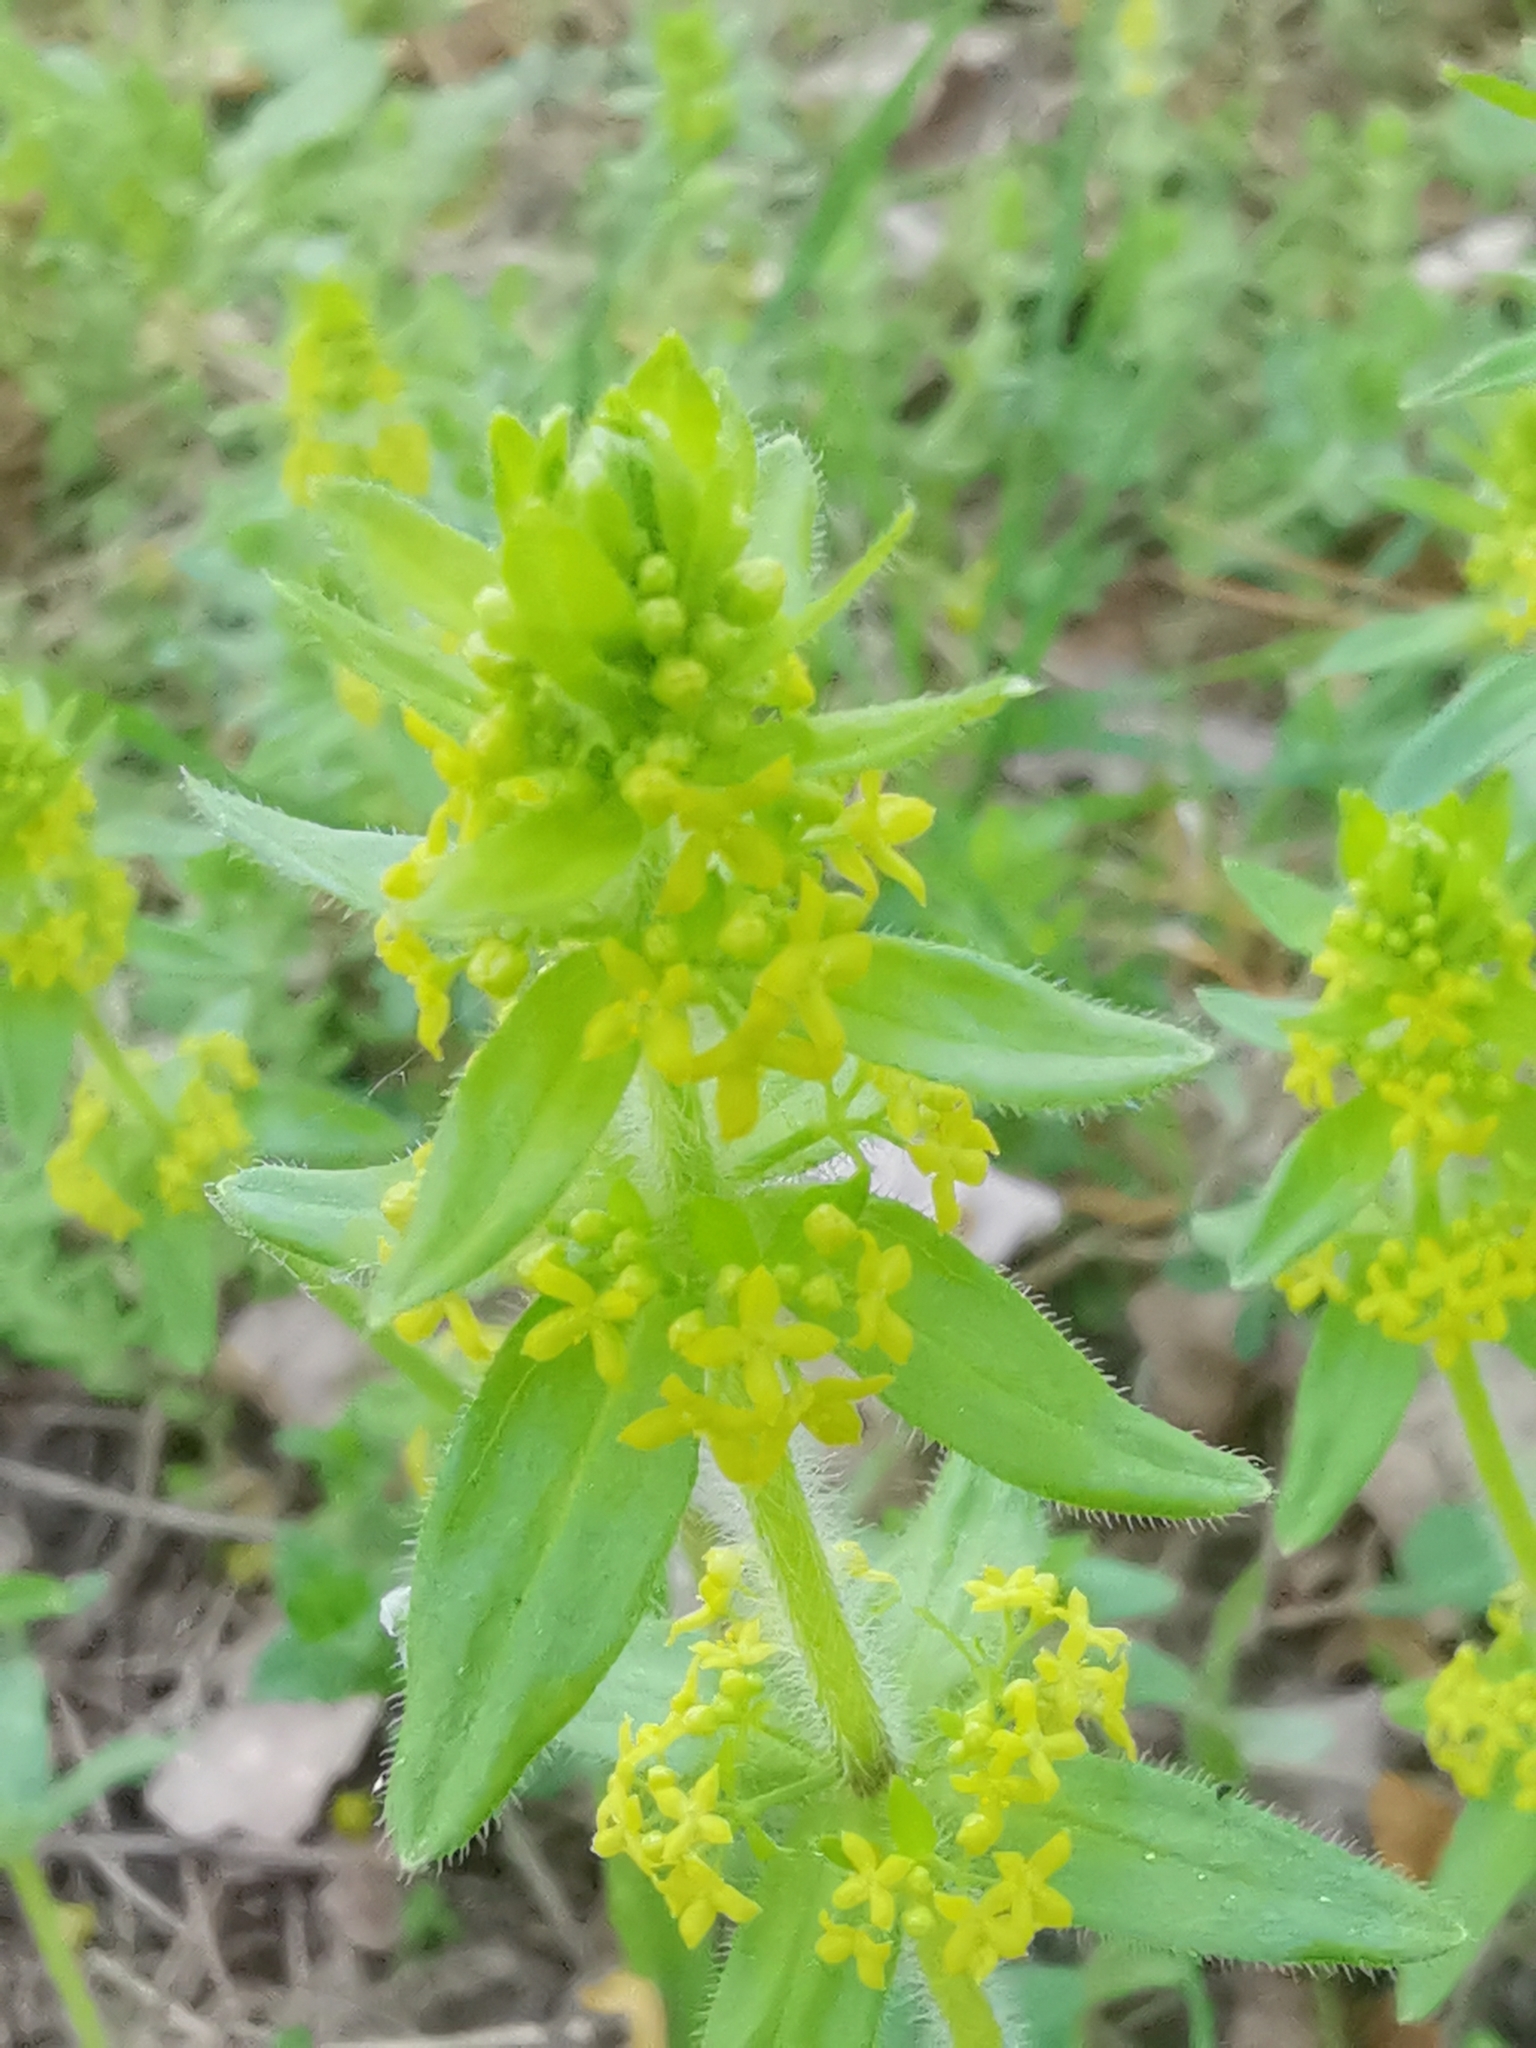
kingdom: Plantae
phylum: Tracheophyta
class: Magnoliopsida
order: Gentianales
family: Rubiaceae
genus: Cruciata
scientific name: Cruciata laevipes
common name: Crosswort
